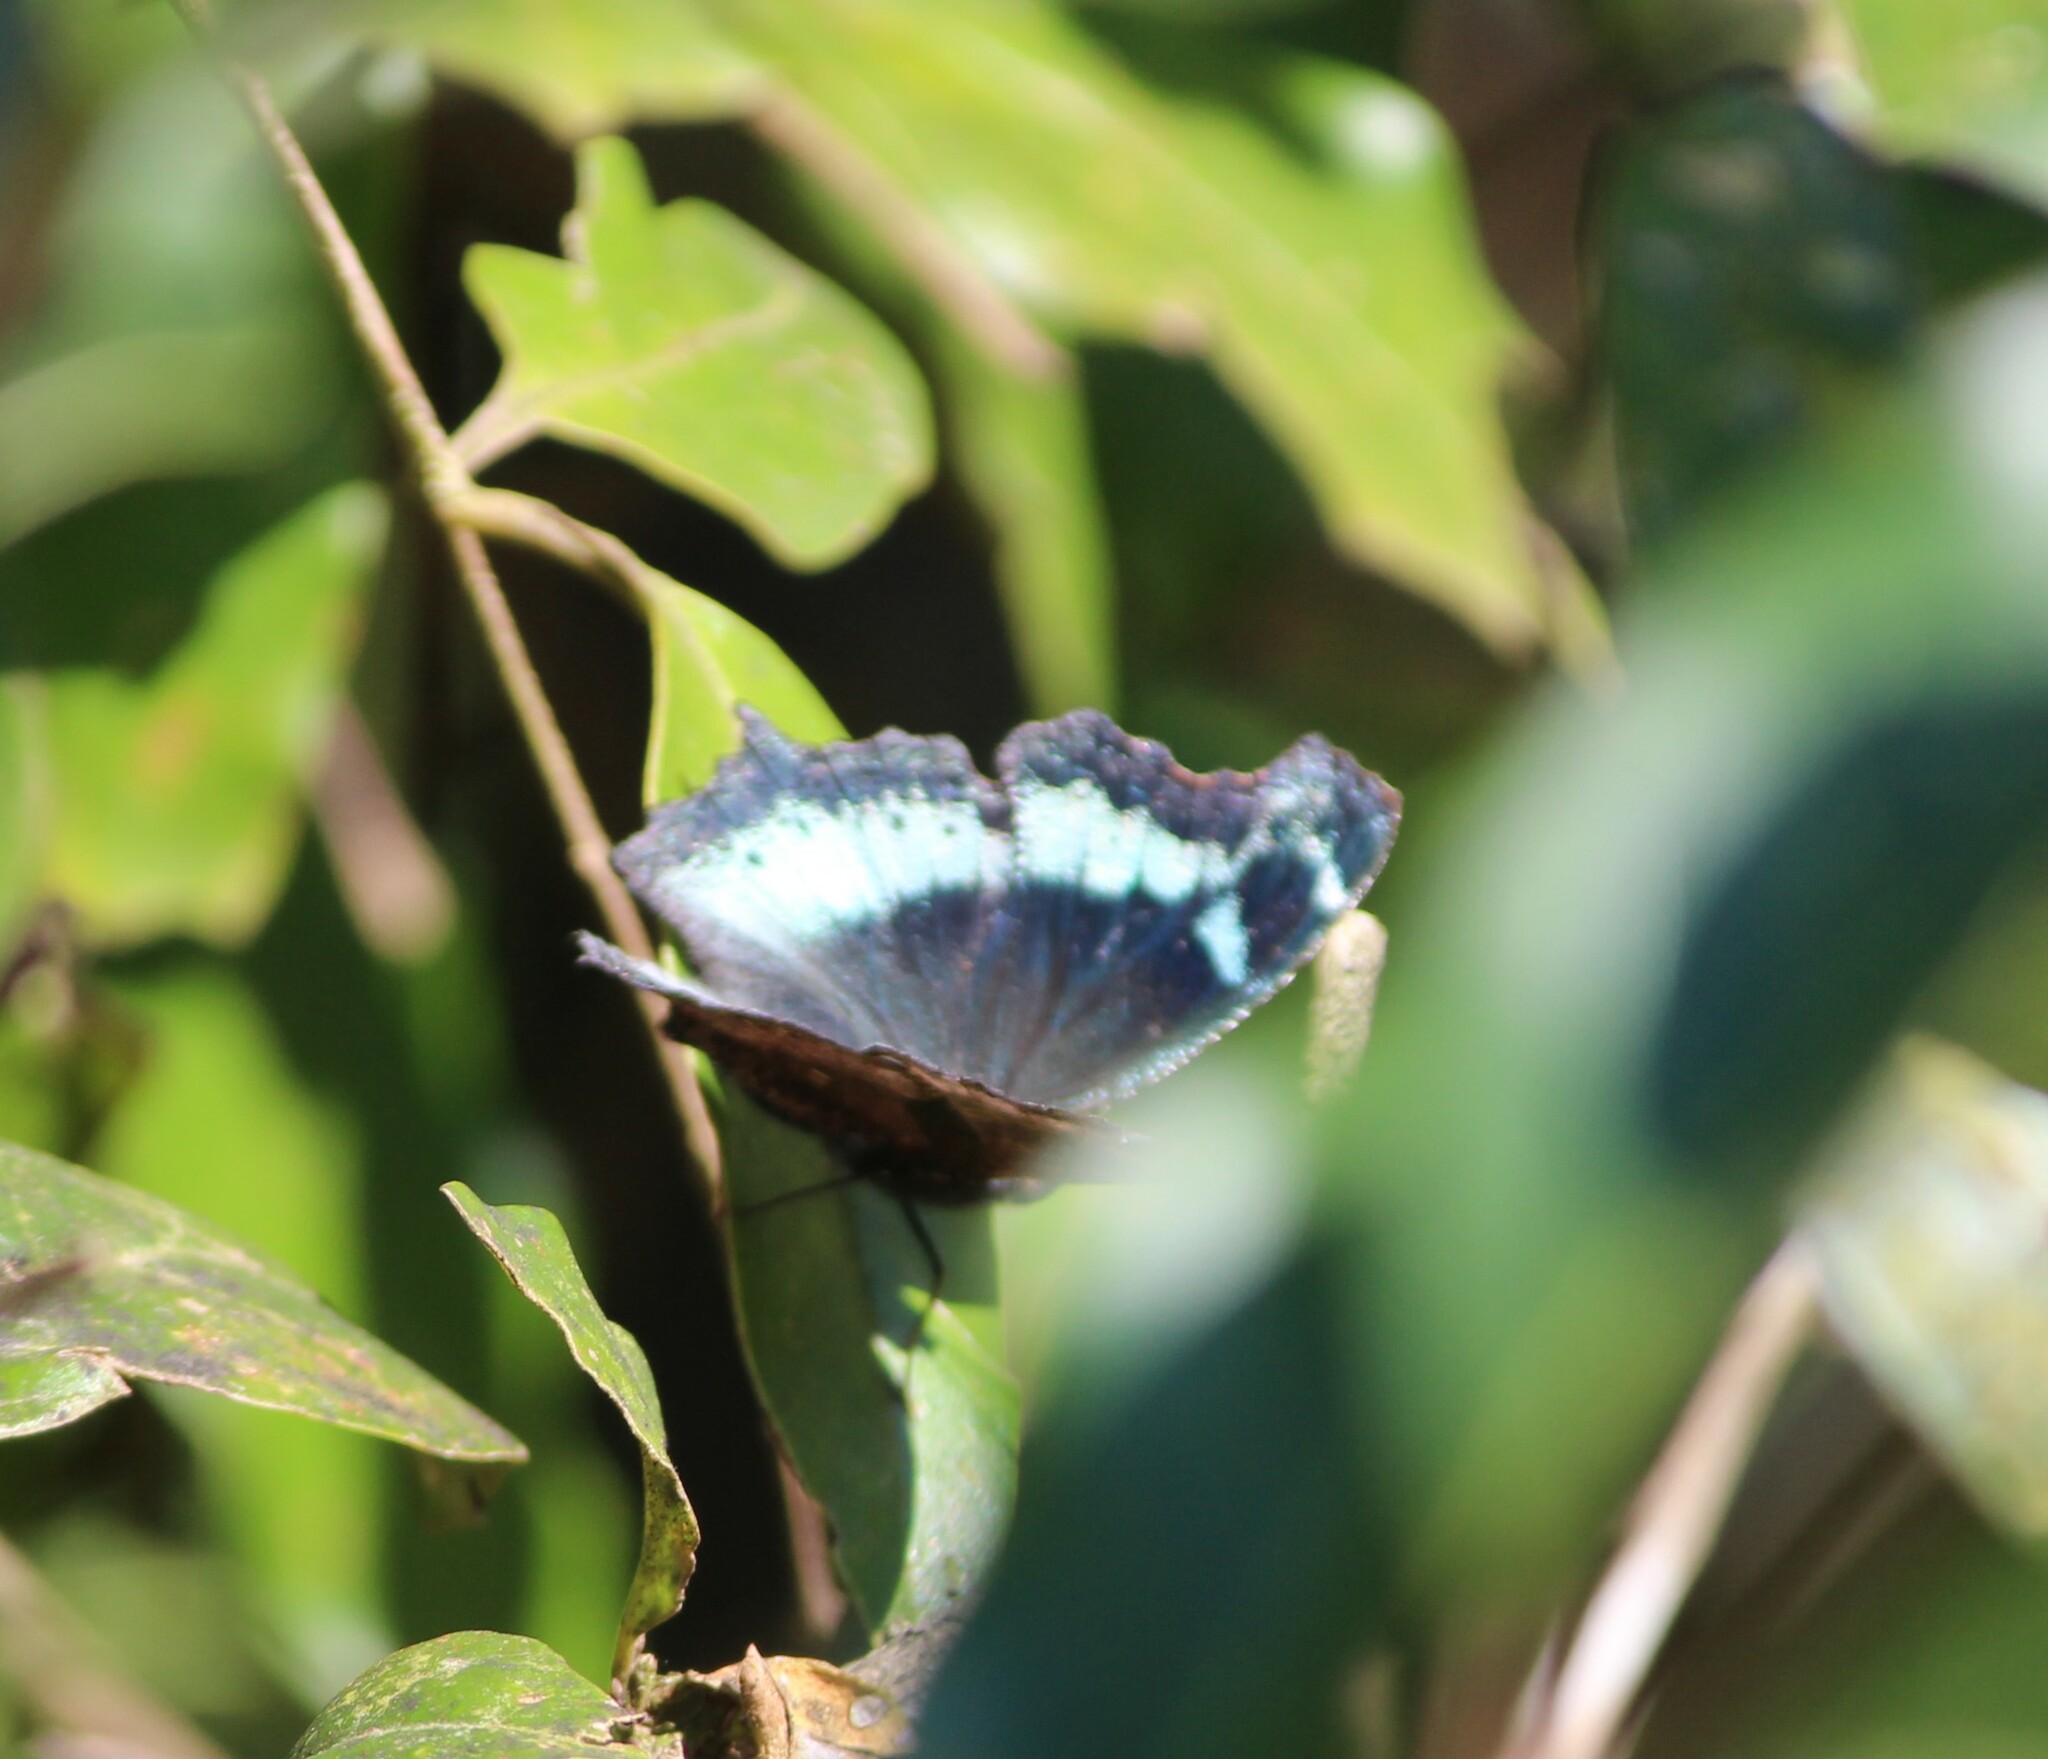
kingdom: Animalia
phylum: Arthropoda
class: Insecta
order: Lepidoptera
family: Nymphalidae
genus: Vanessa
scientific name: Vanessa Kaniska canace
